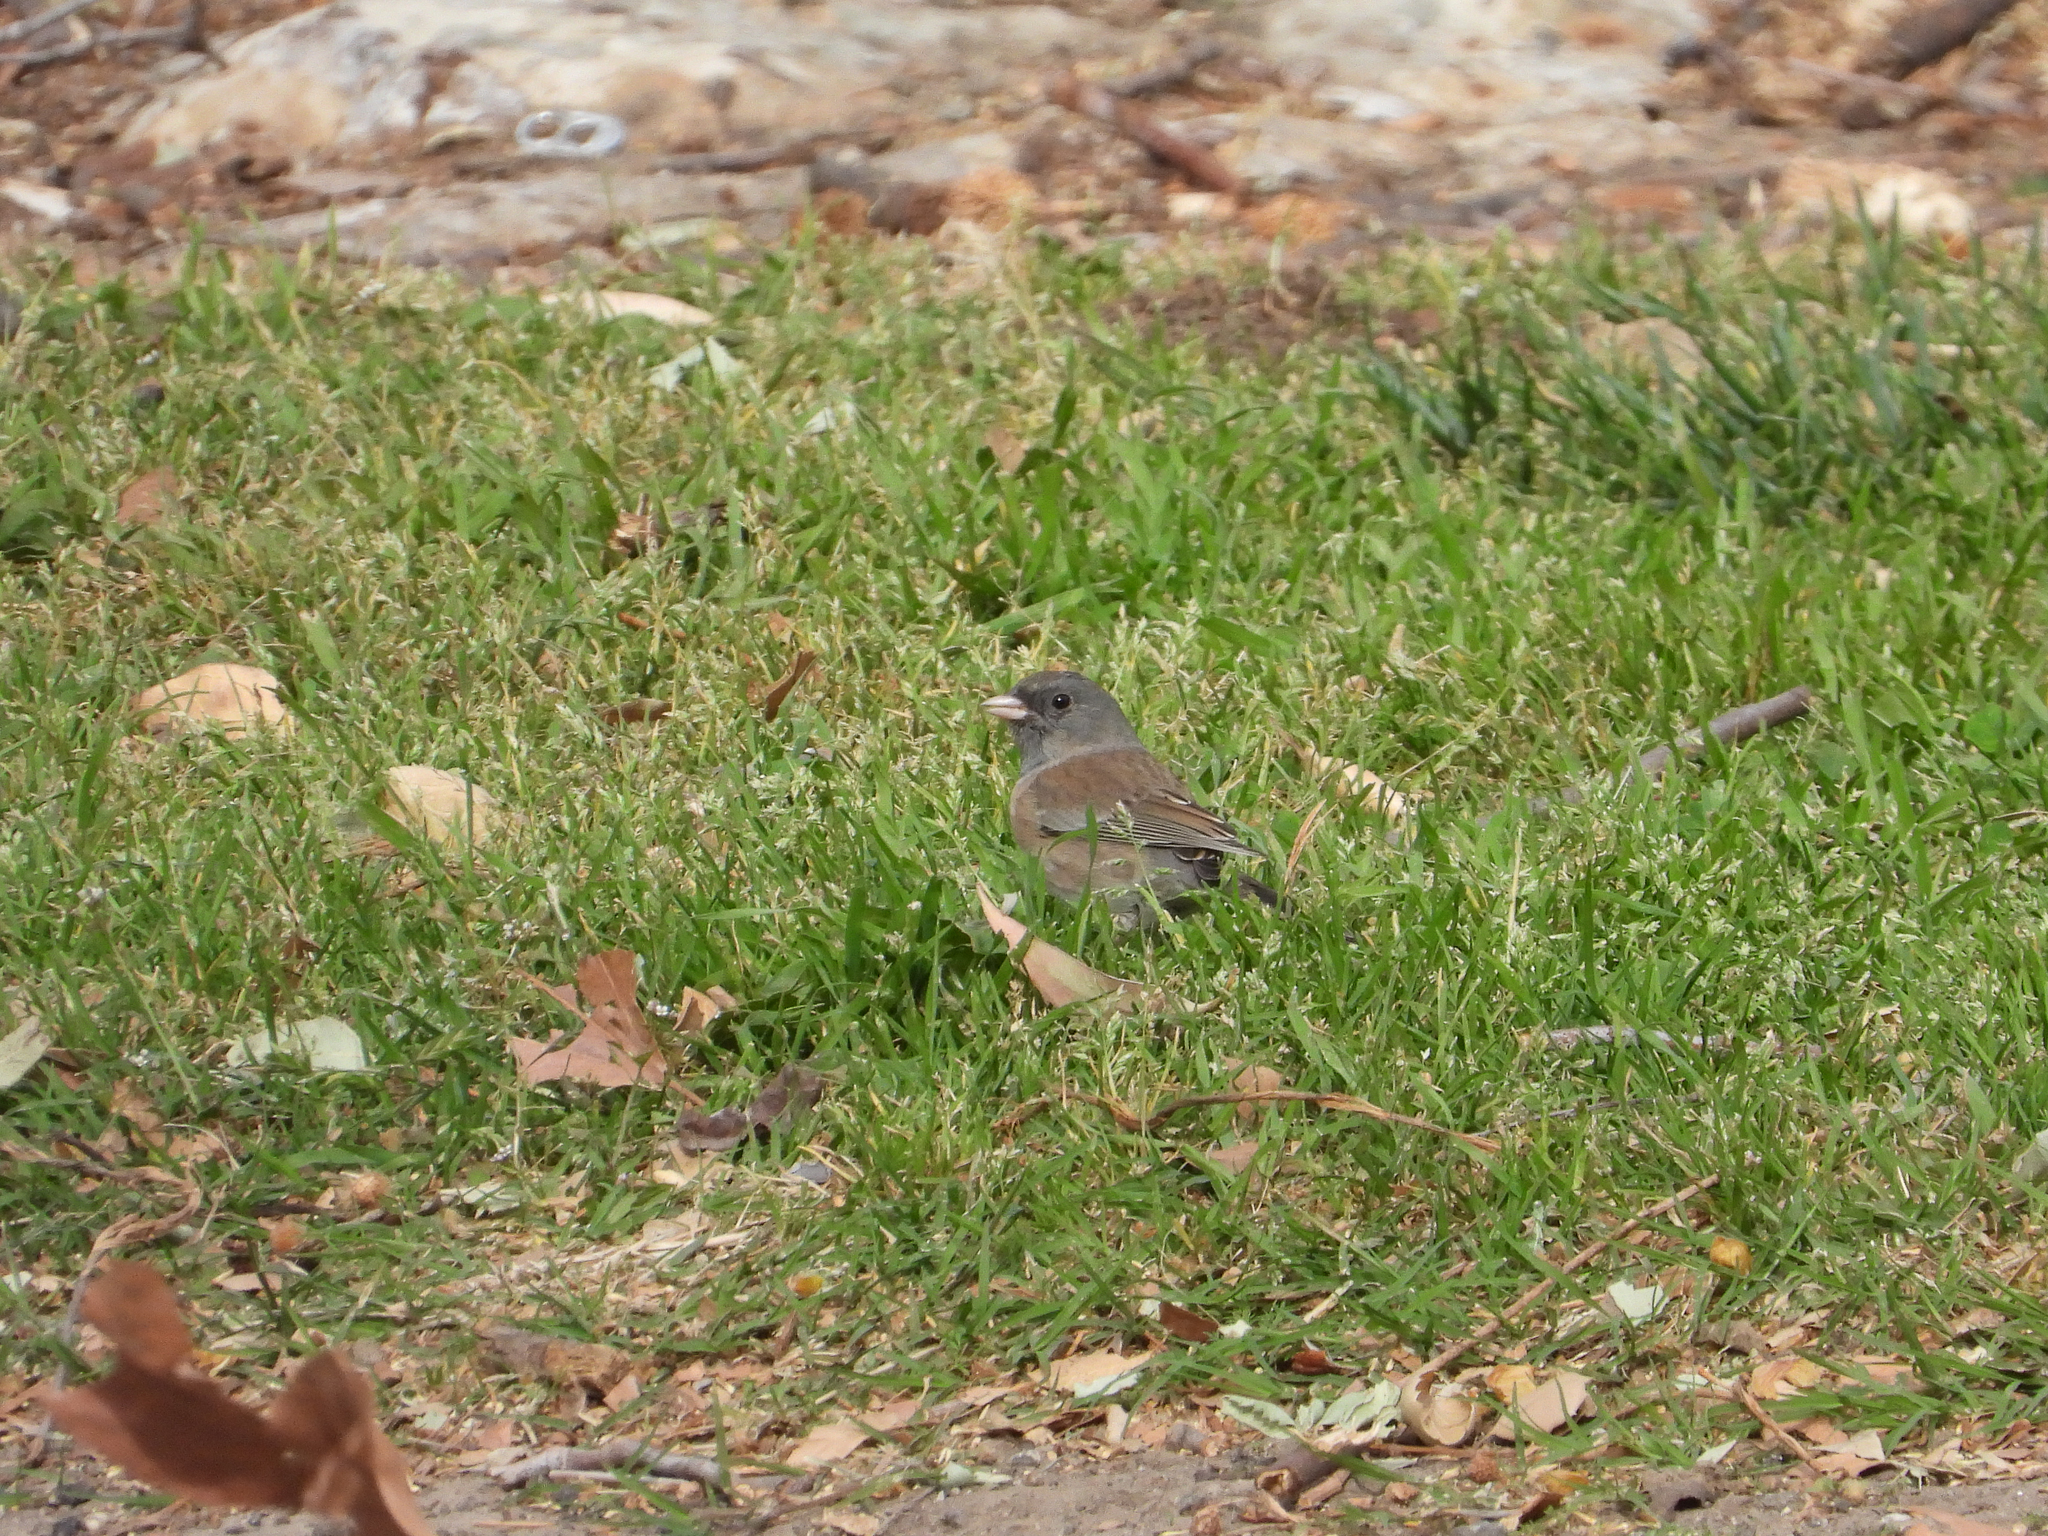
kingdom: Animalia
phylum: Chordata
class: Aves
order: Passeriformes
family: Passerellidae
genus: Junco
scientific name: Junco hyemalis
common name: Dark-eyed junco
